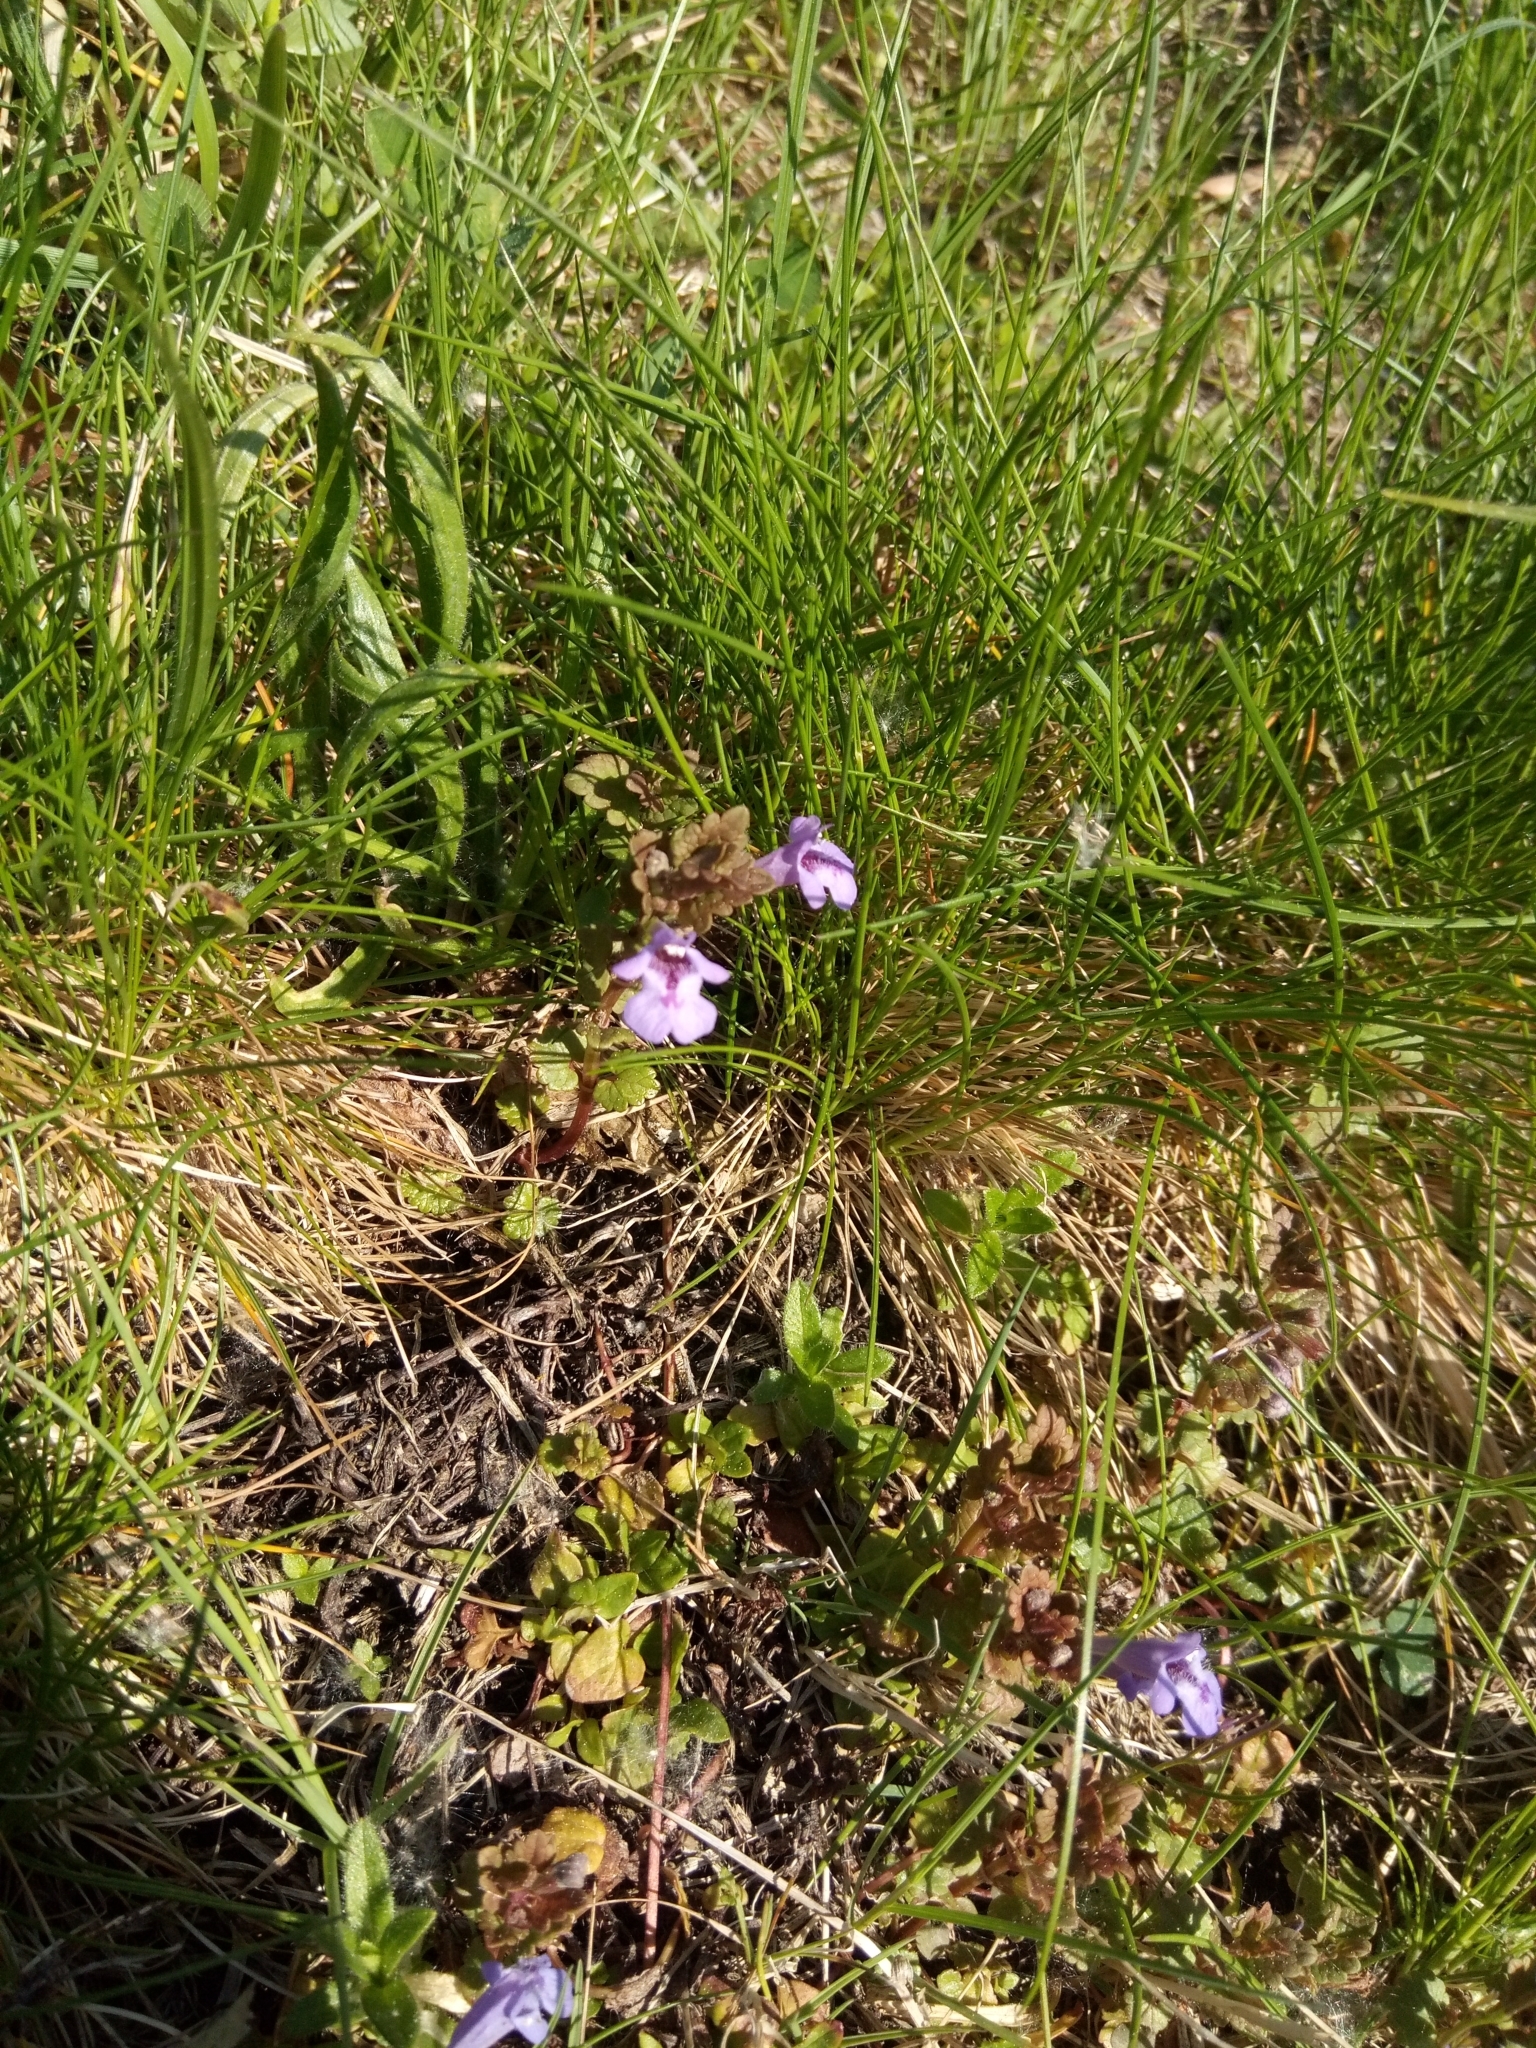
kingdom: Plantae
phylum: Tracheophyta
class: Magnoliopsida
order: Lamiales
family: Lamiaceae
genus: Glechoma
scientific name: Glechoma hederacea
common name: Ground ivy
